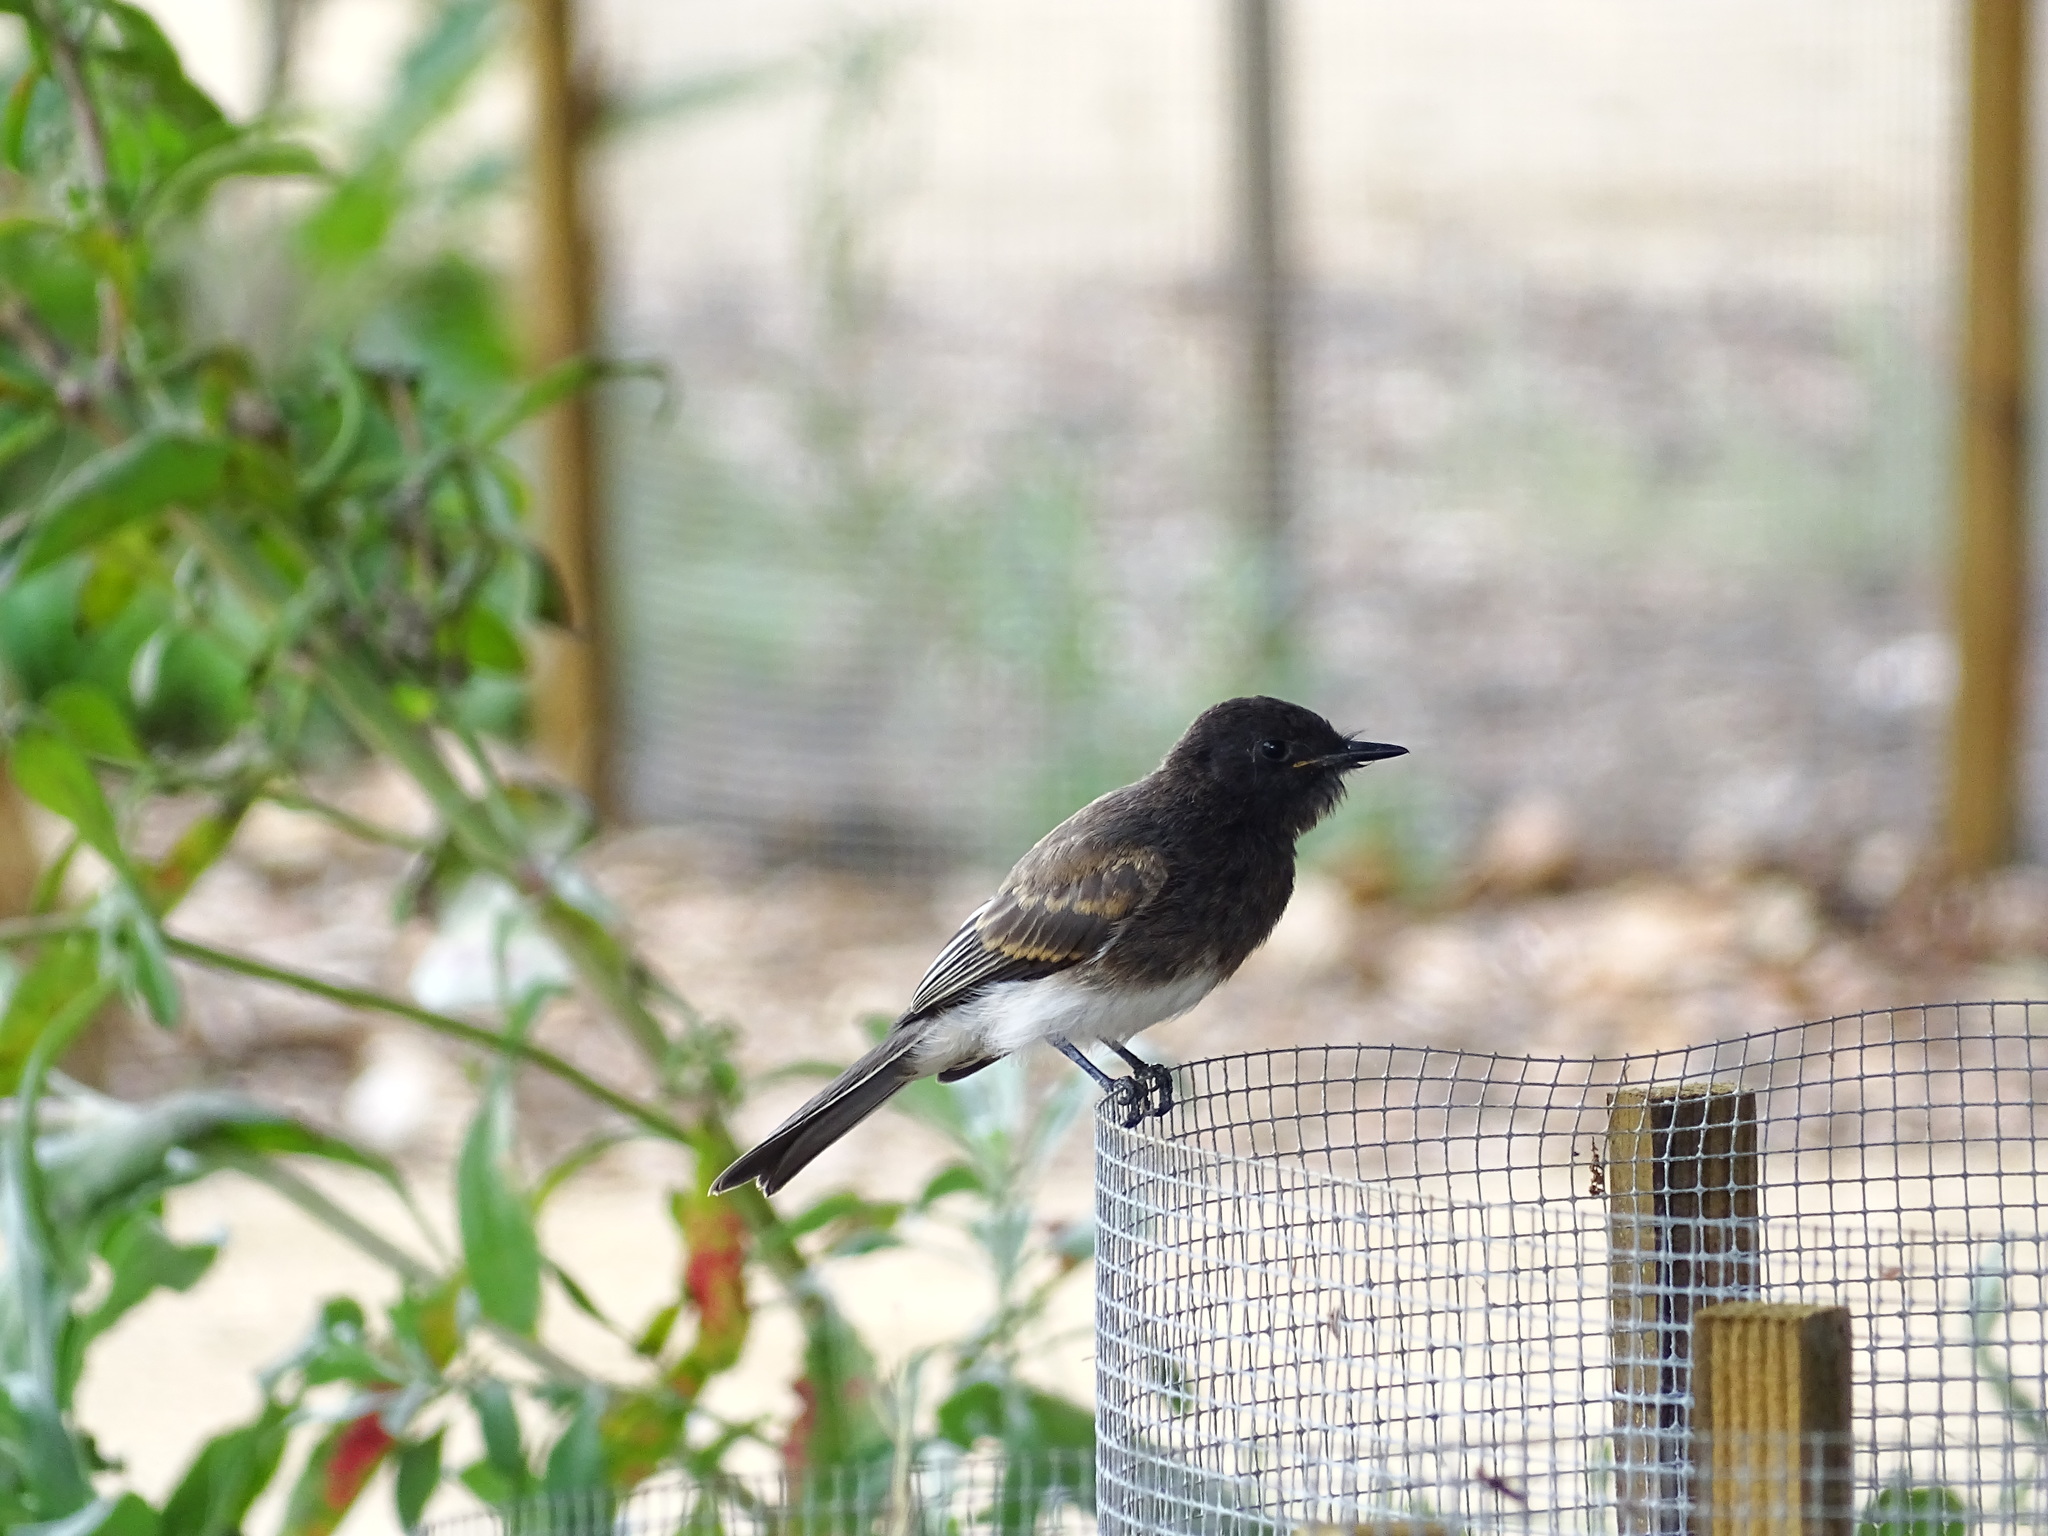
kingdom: Animalia
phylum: Chordata
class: Aves
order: Passeriformes
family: Tyrannidae
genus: Sayornis
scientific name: Sayornis nigricans
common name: Black phoebe
